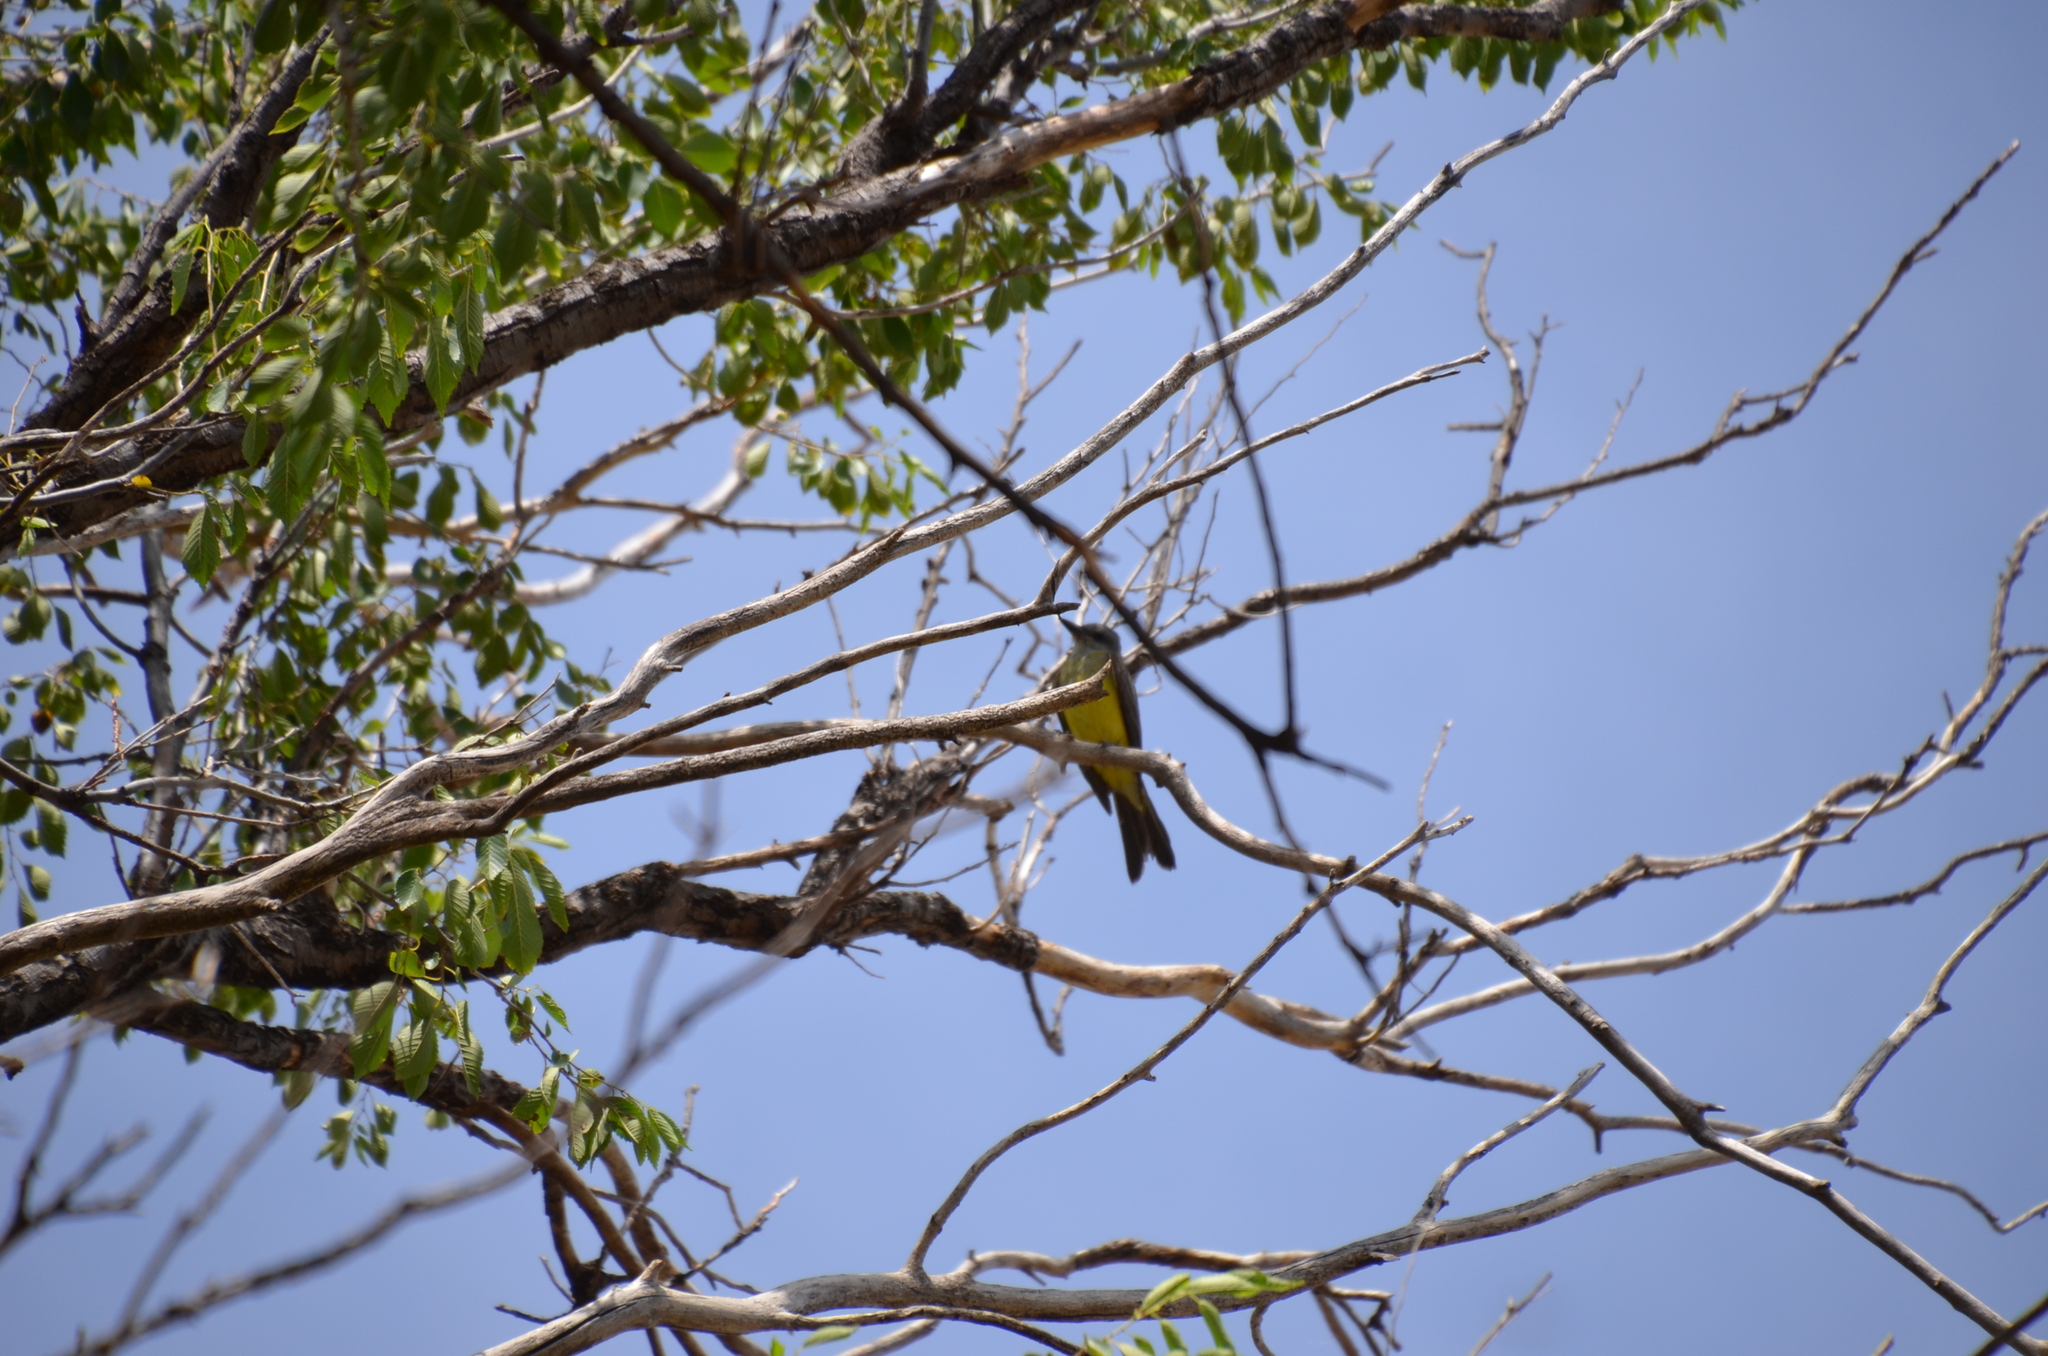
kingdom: Animalia
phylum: Chordata
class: Aves
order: Passeriformes
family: Tyrannidae
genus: Tyrannus
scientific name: Tyrannus melancholicus
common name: Tropical kingbird
